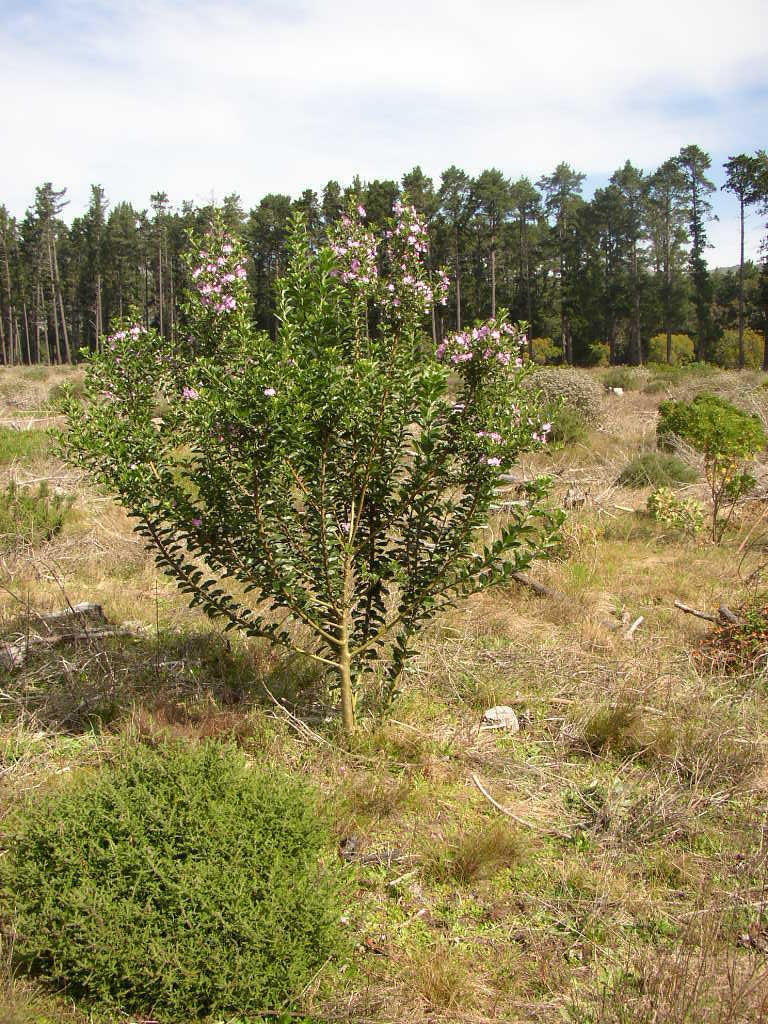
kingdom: Plantae
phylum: Tracheophyta
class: Magnoliopsida
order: Fabales
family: Fabaceae
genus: Podalyria
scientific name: Podalyria calyptrata
